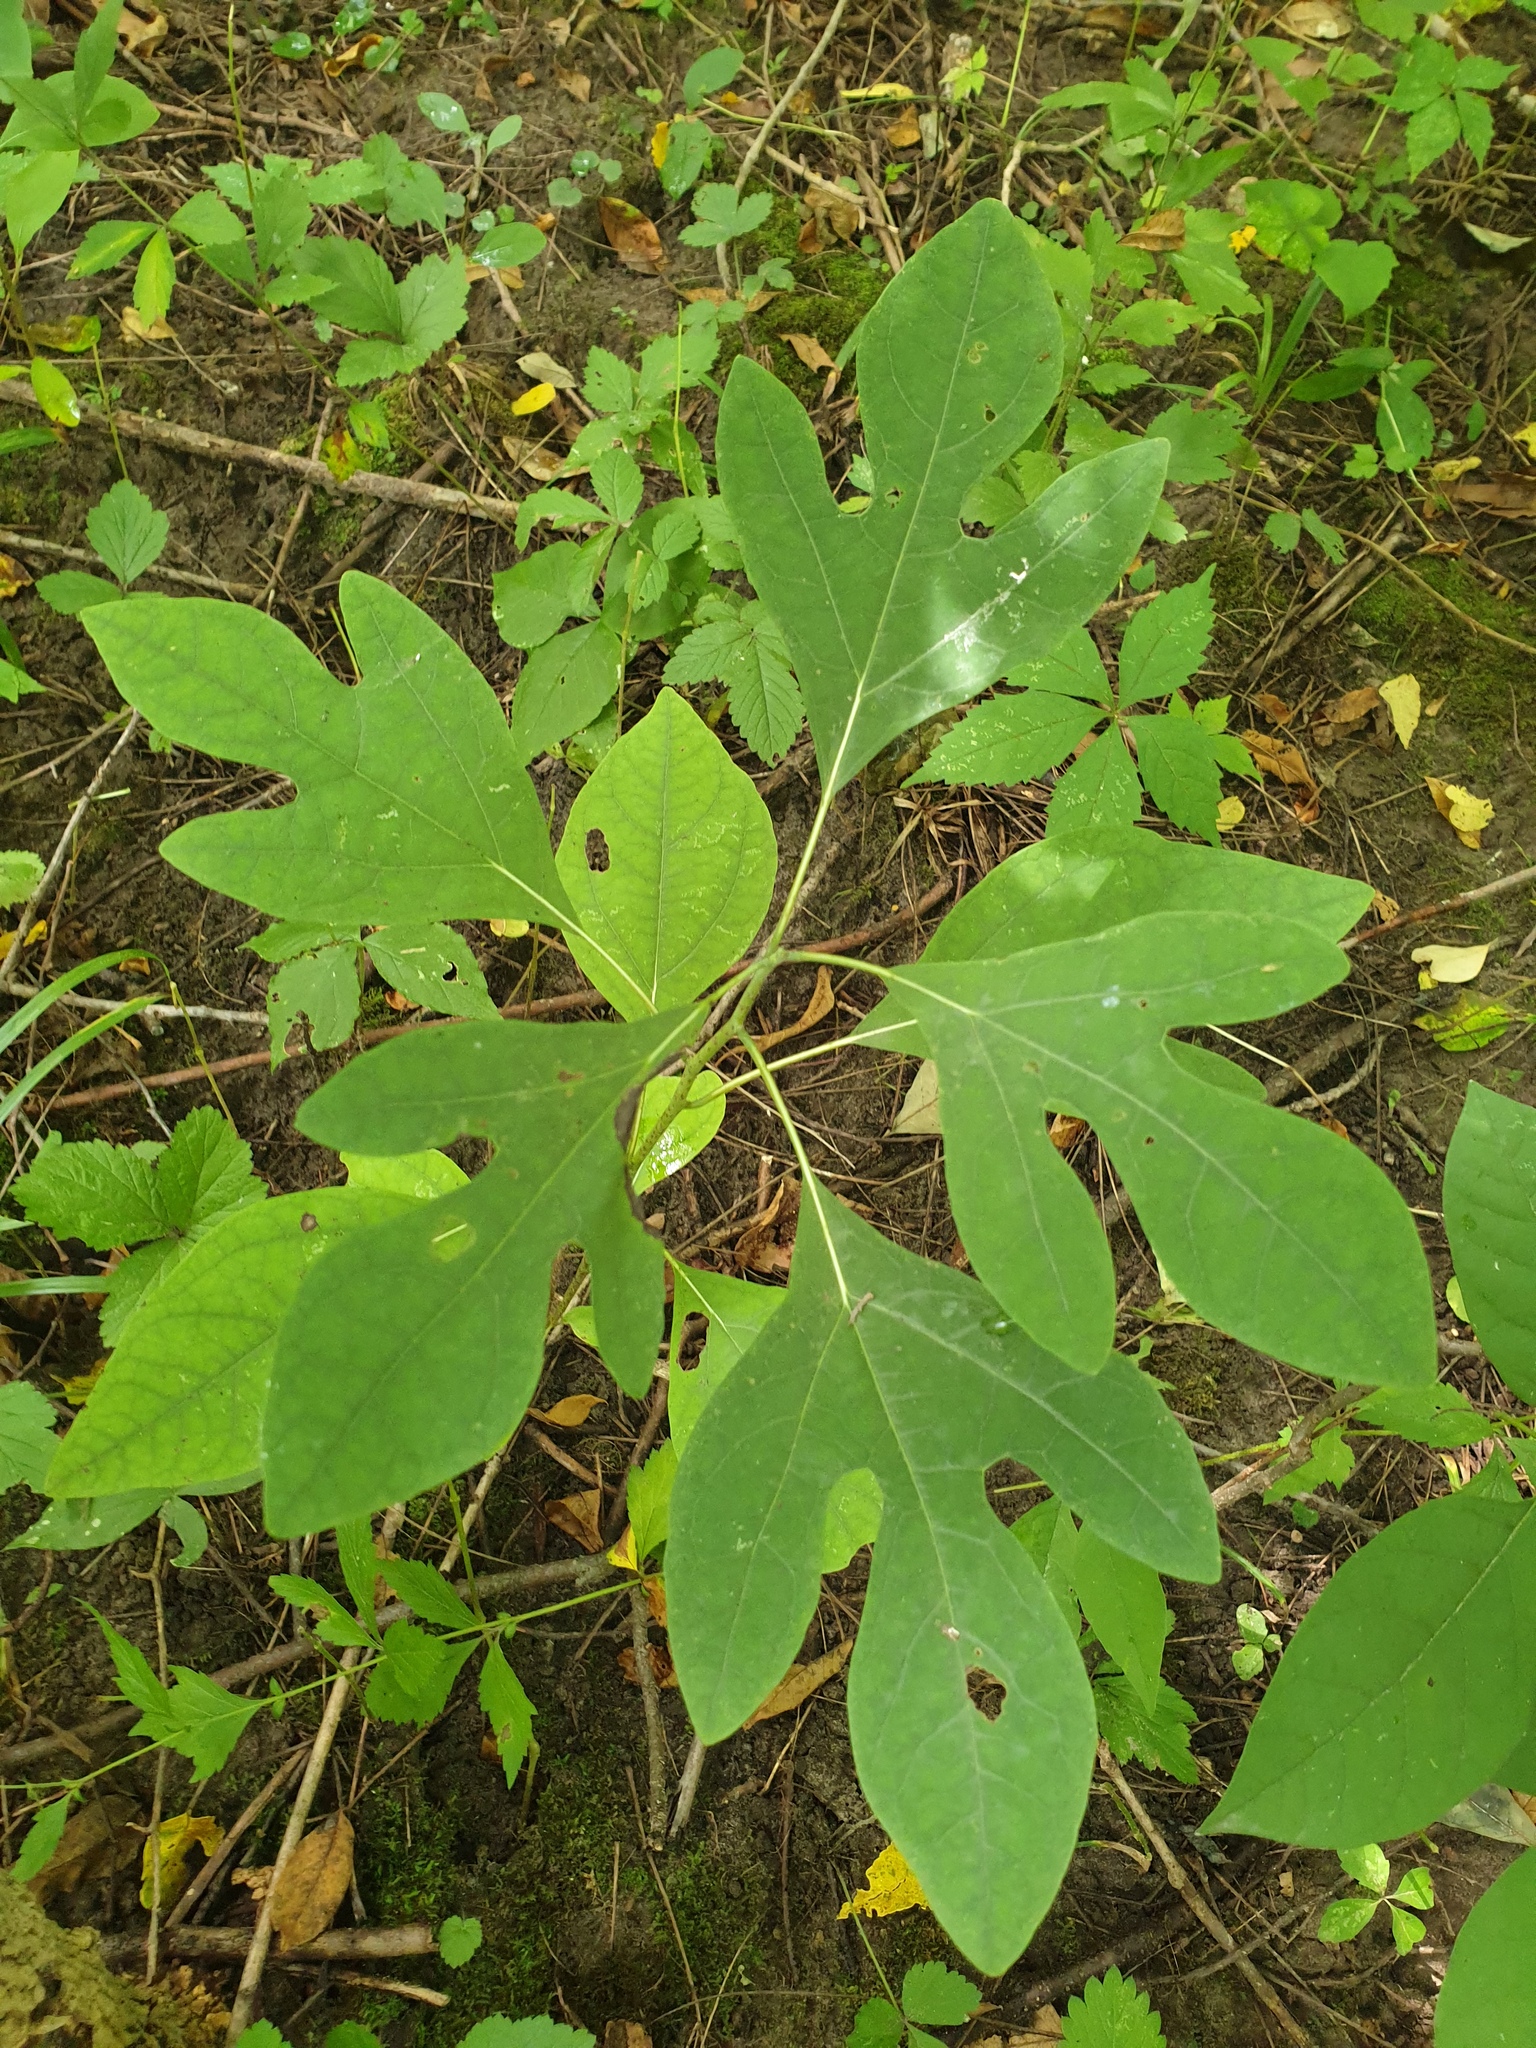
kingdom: Plantae
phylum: Tracheophyta
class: Magnoliopsida
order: Laurales
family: Lauraceae
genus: Sassafras
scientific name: Sassafras albidum
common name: Sassafras
